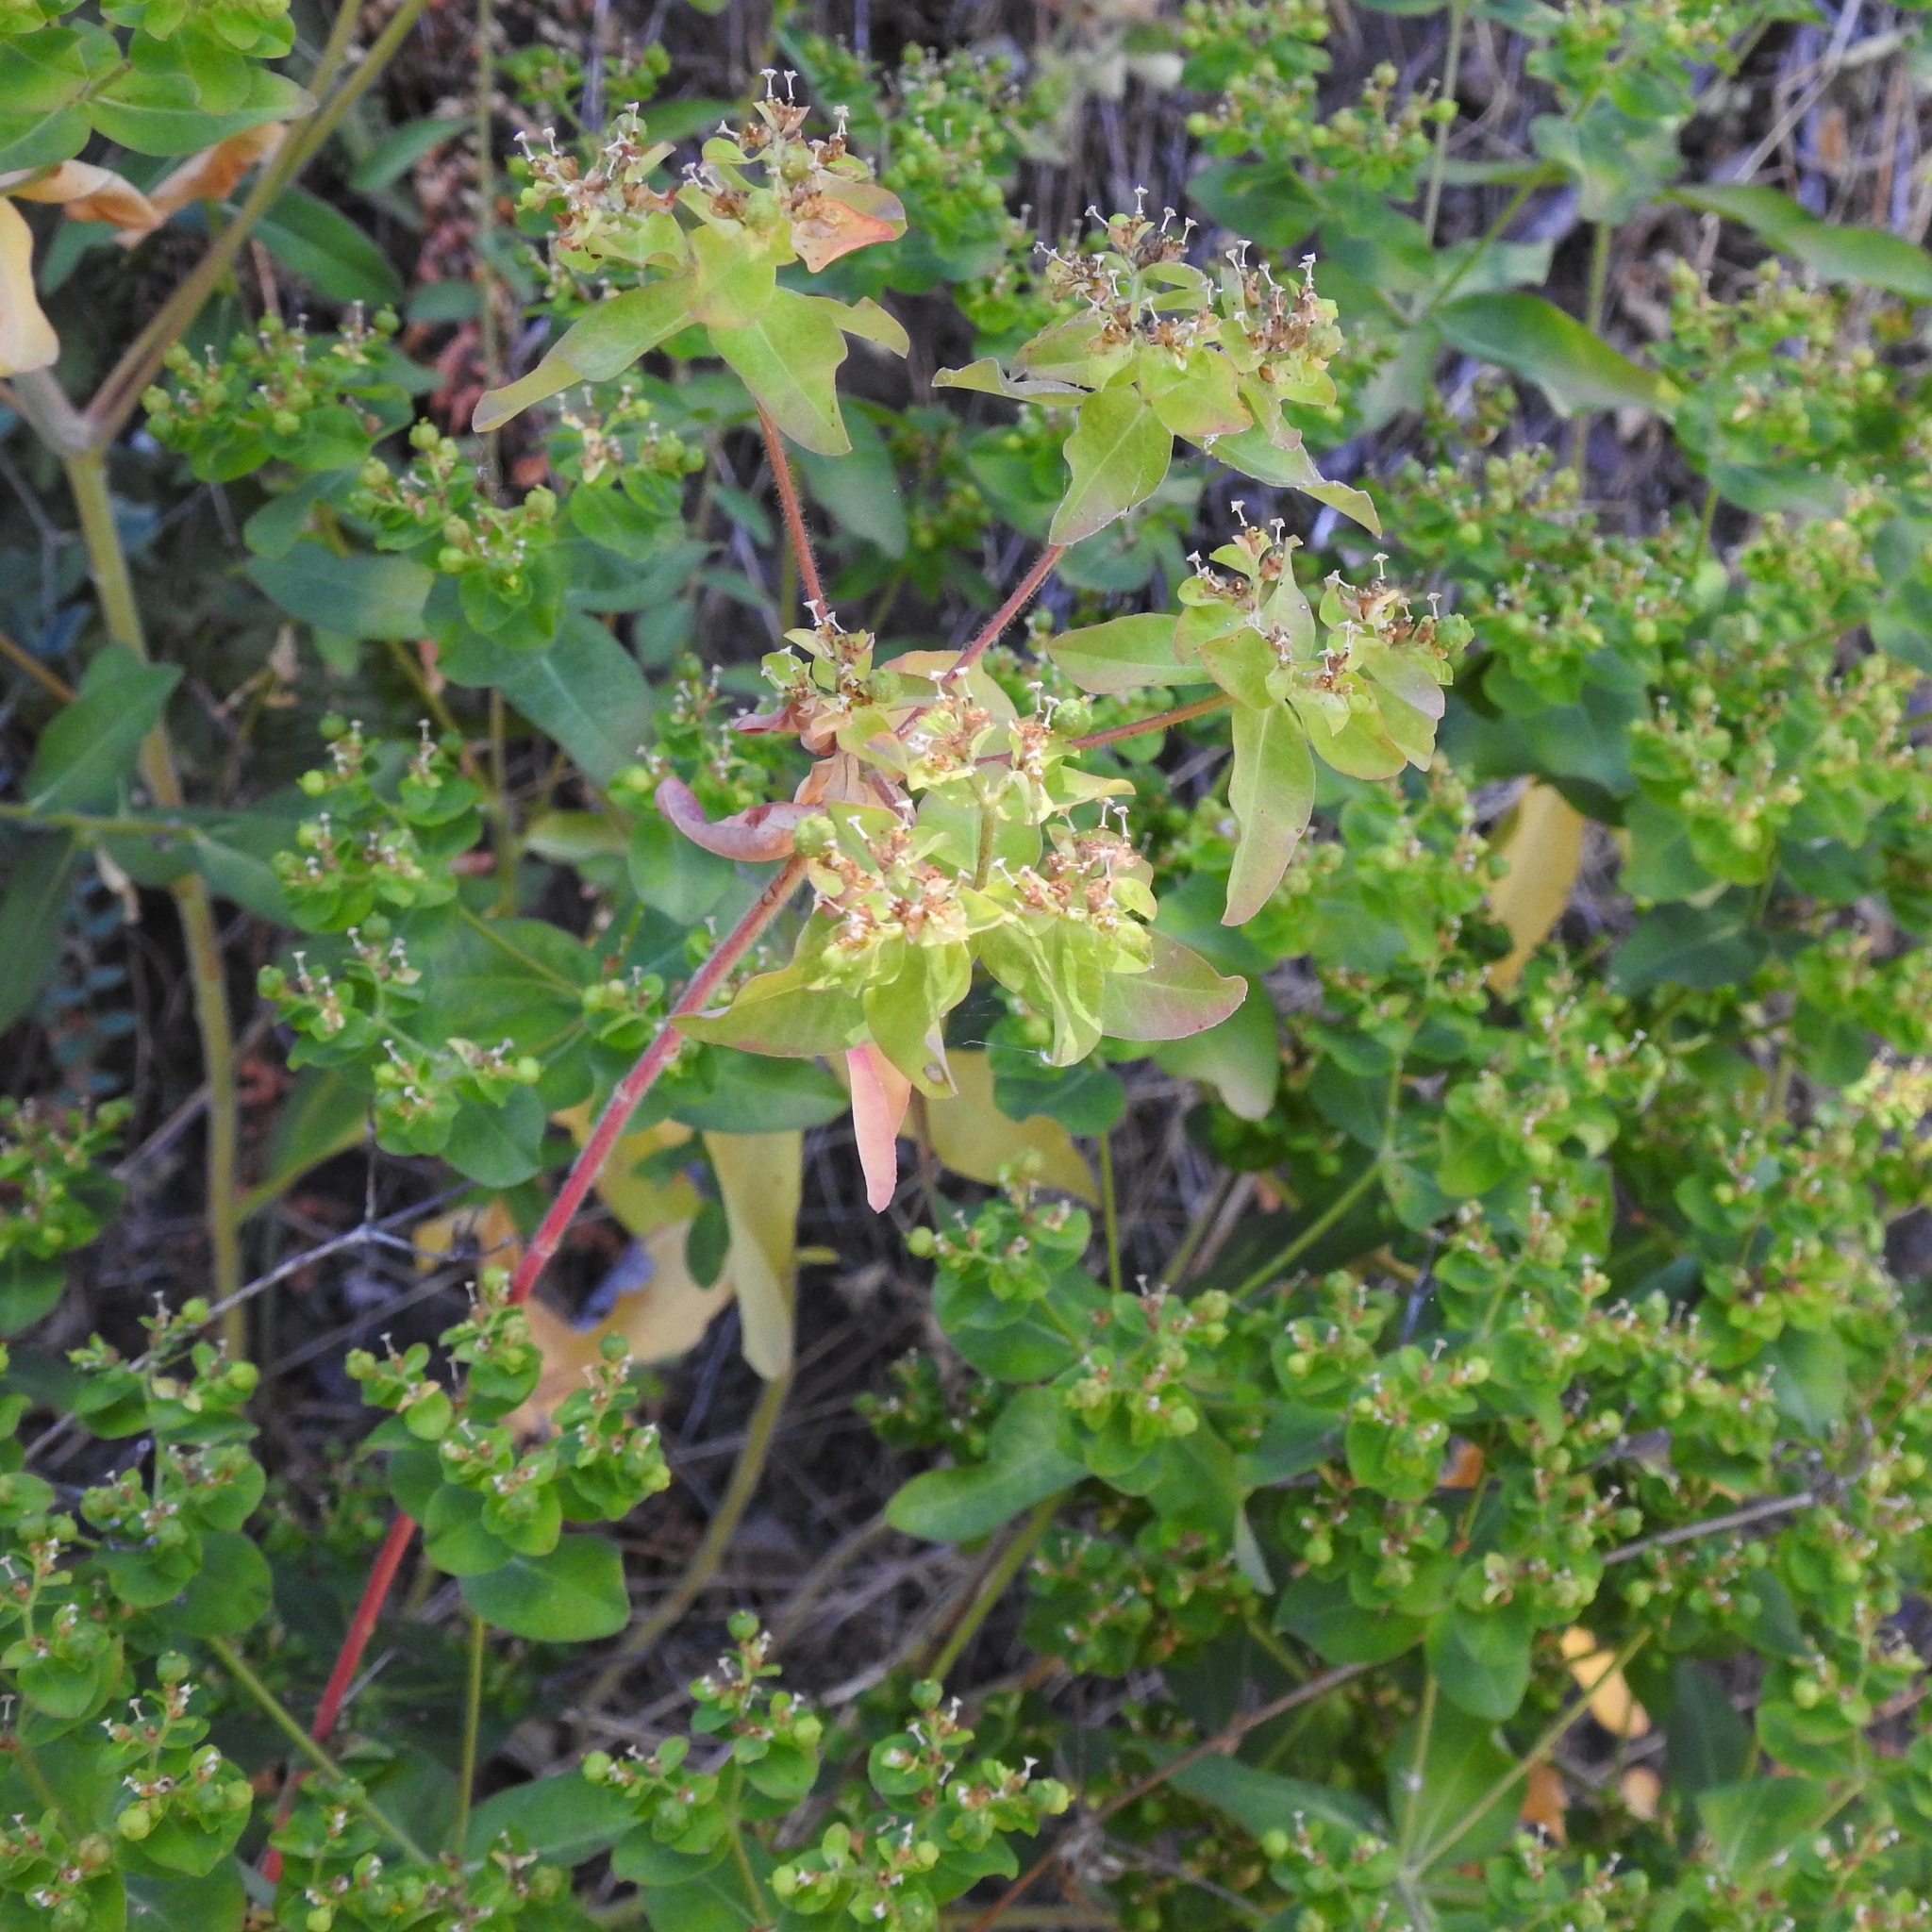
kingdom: Plantae
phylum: Tracheophyta
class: Magnoliopsida
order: Malpighiales
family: Euphorbiaceae
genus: Euphorbia
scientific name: Euphorbia oblongata
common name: Balkan spurge
